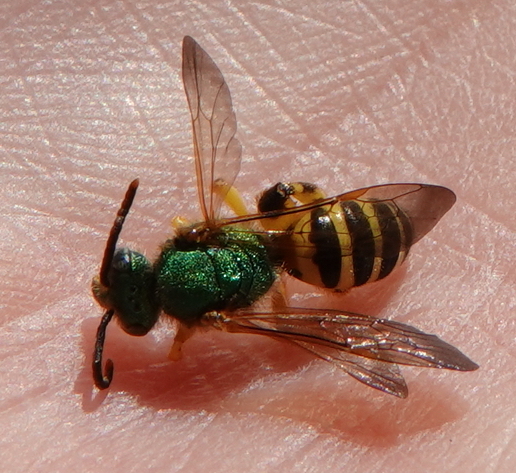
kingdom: Animalia
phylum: Arthropoda
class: Insecta
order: Hymenoptera
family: Halictidae
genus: Agapostemon
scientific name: Agapostemon splendens
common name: Brown-winged striped sweat bee
